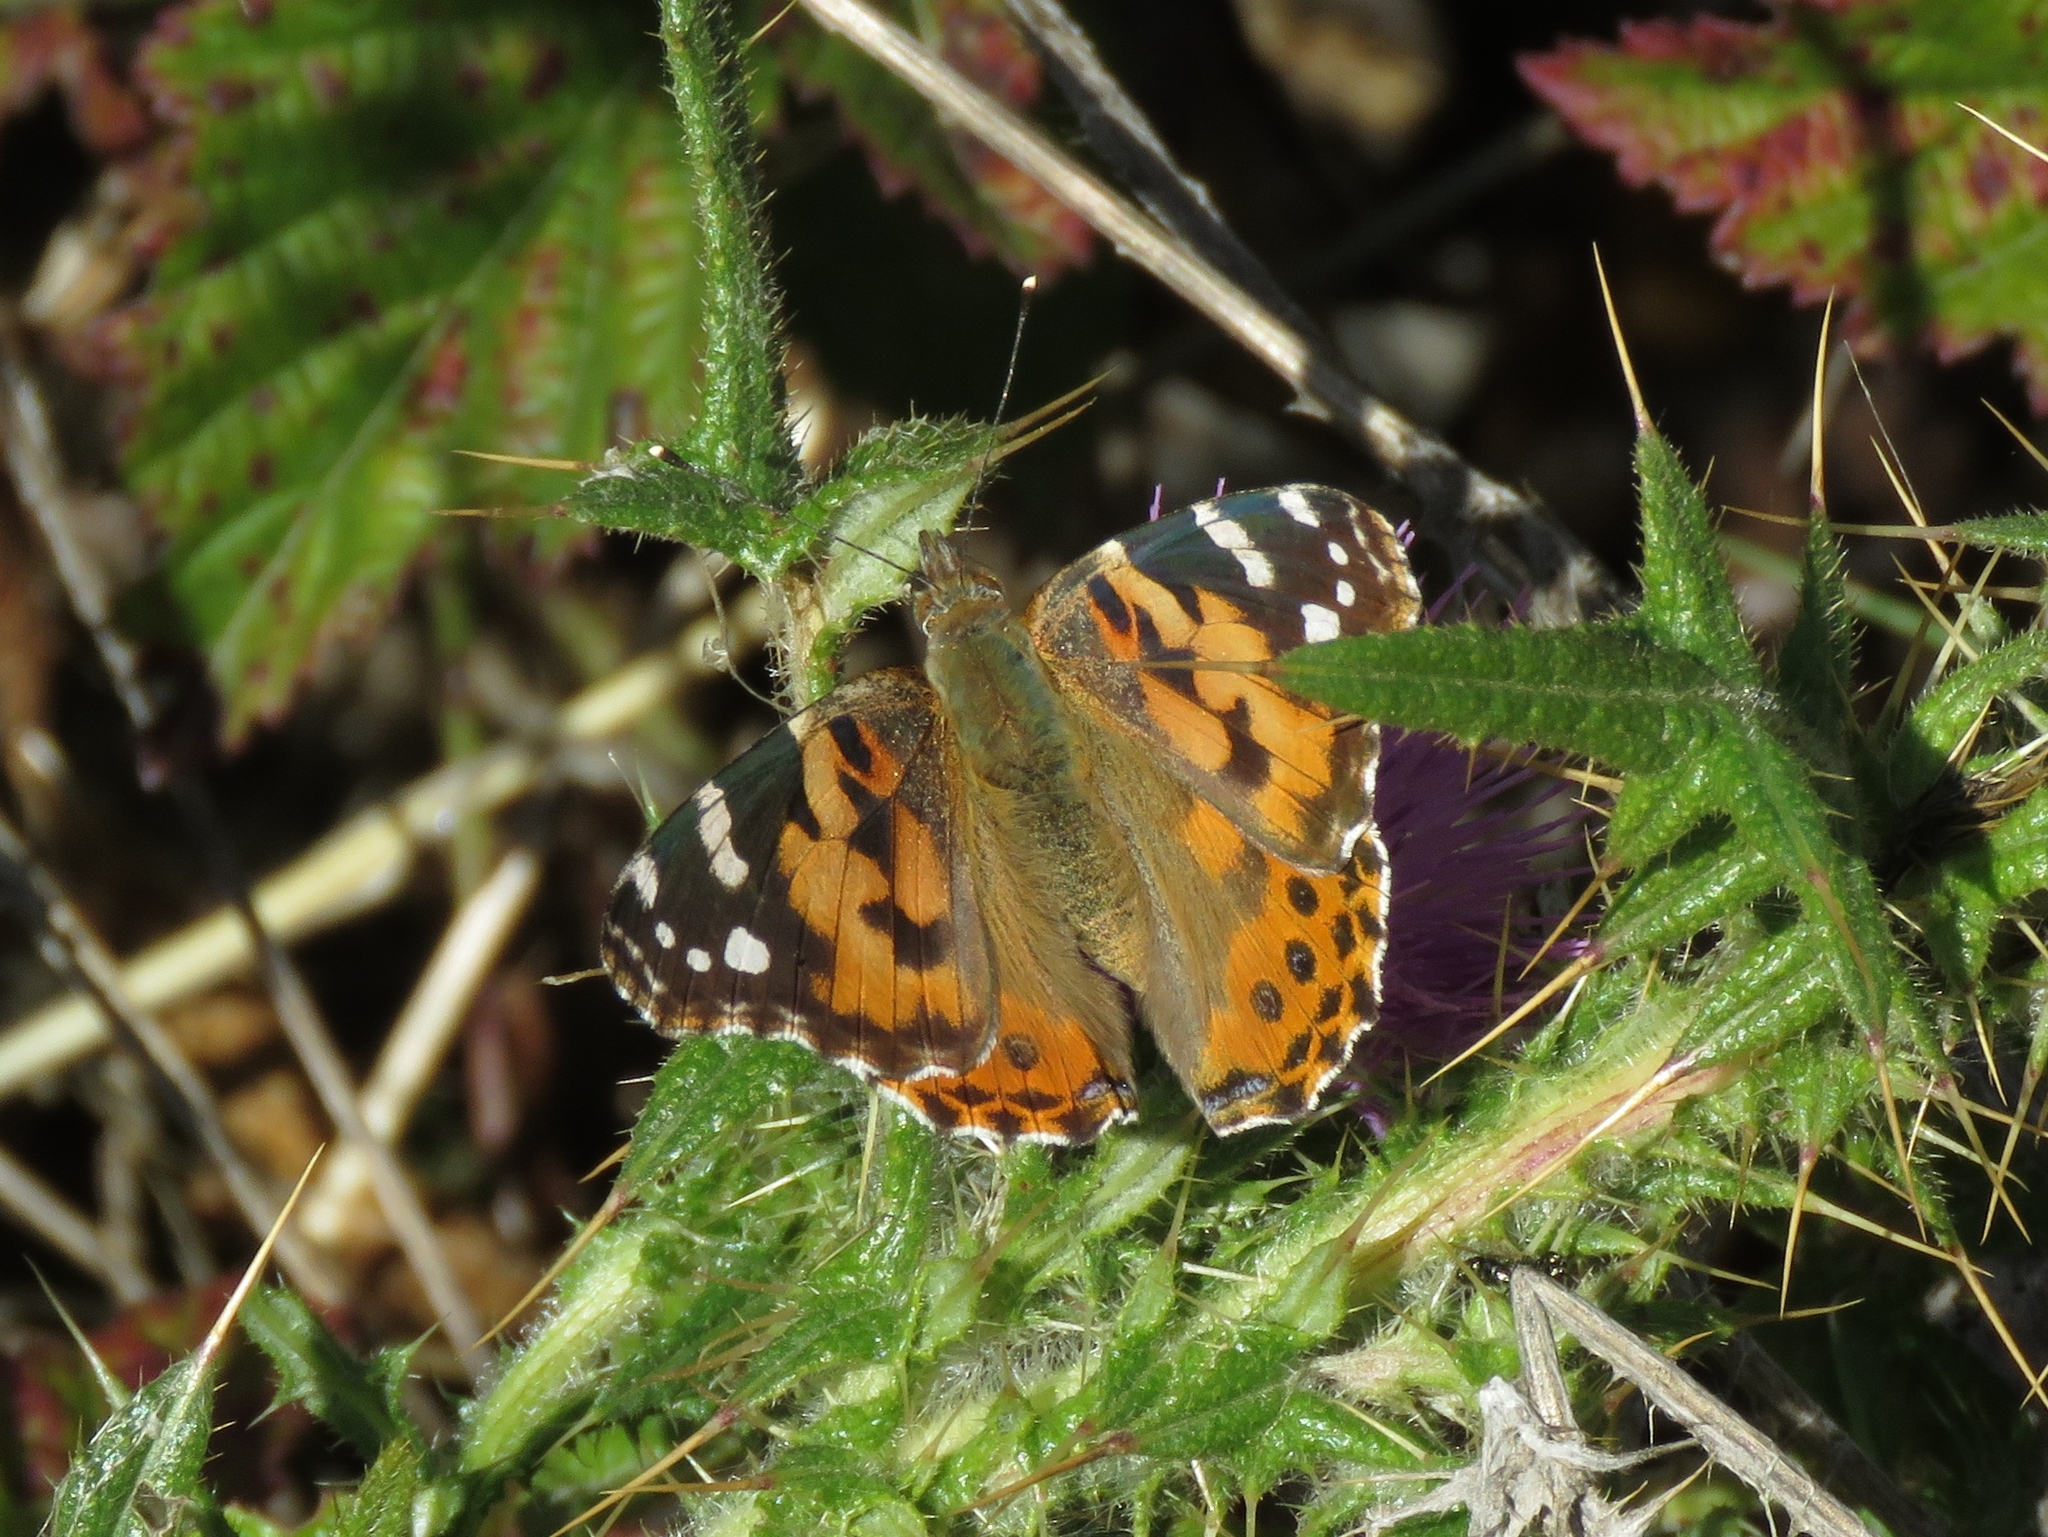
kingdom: Animalia
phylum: Arthropoda
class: Insecta
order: Lepidoptera
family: Nymphalidae
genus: Vanessa
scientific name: Vanessa cardui
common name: Painted lady
